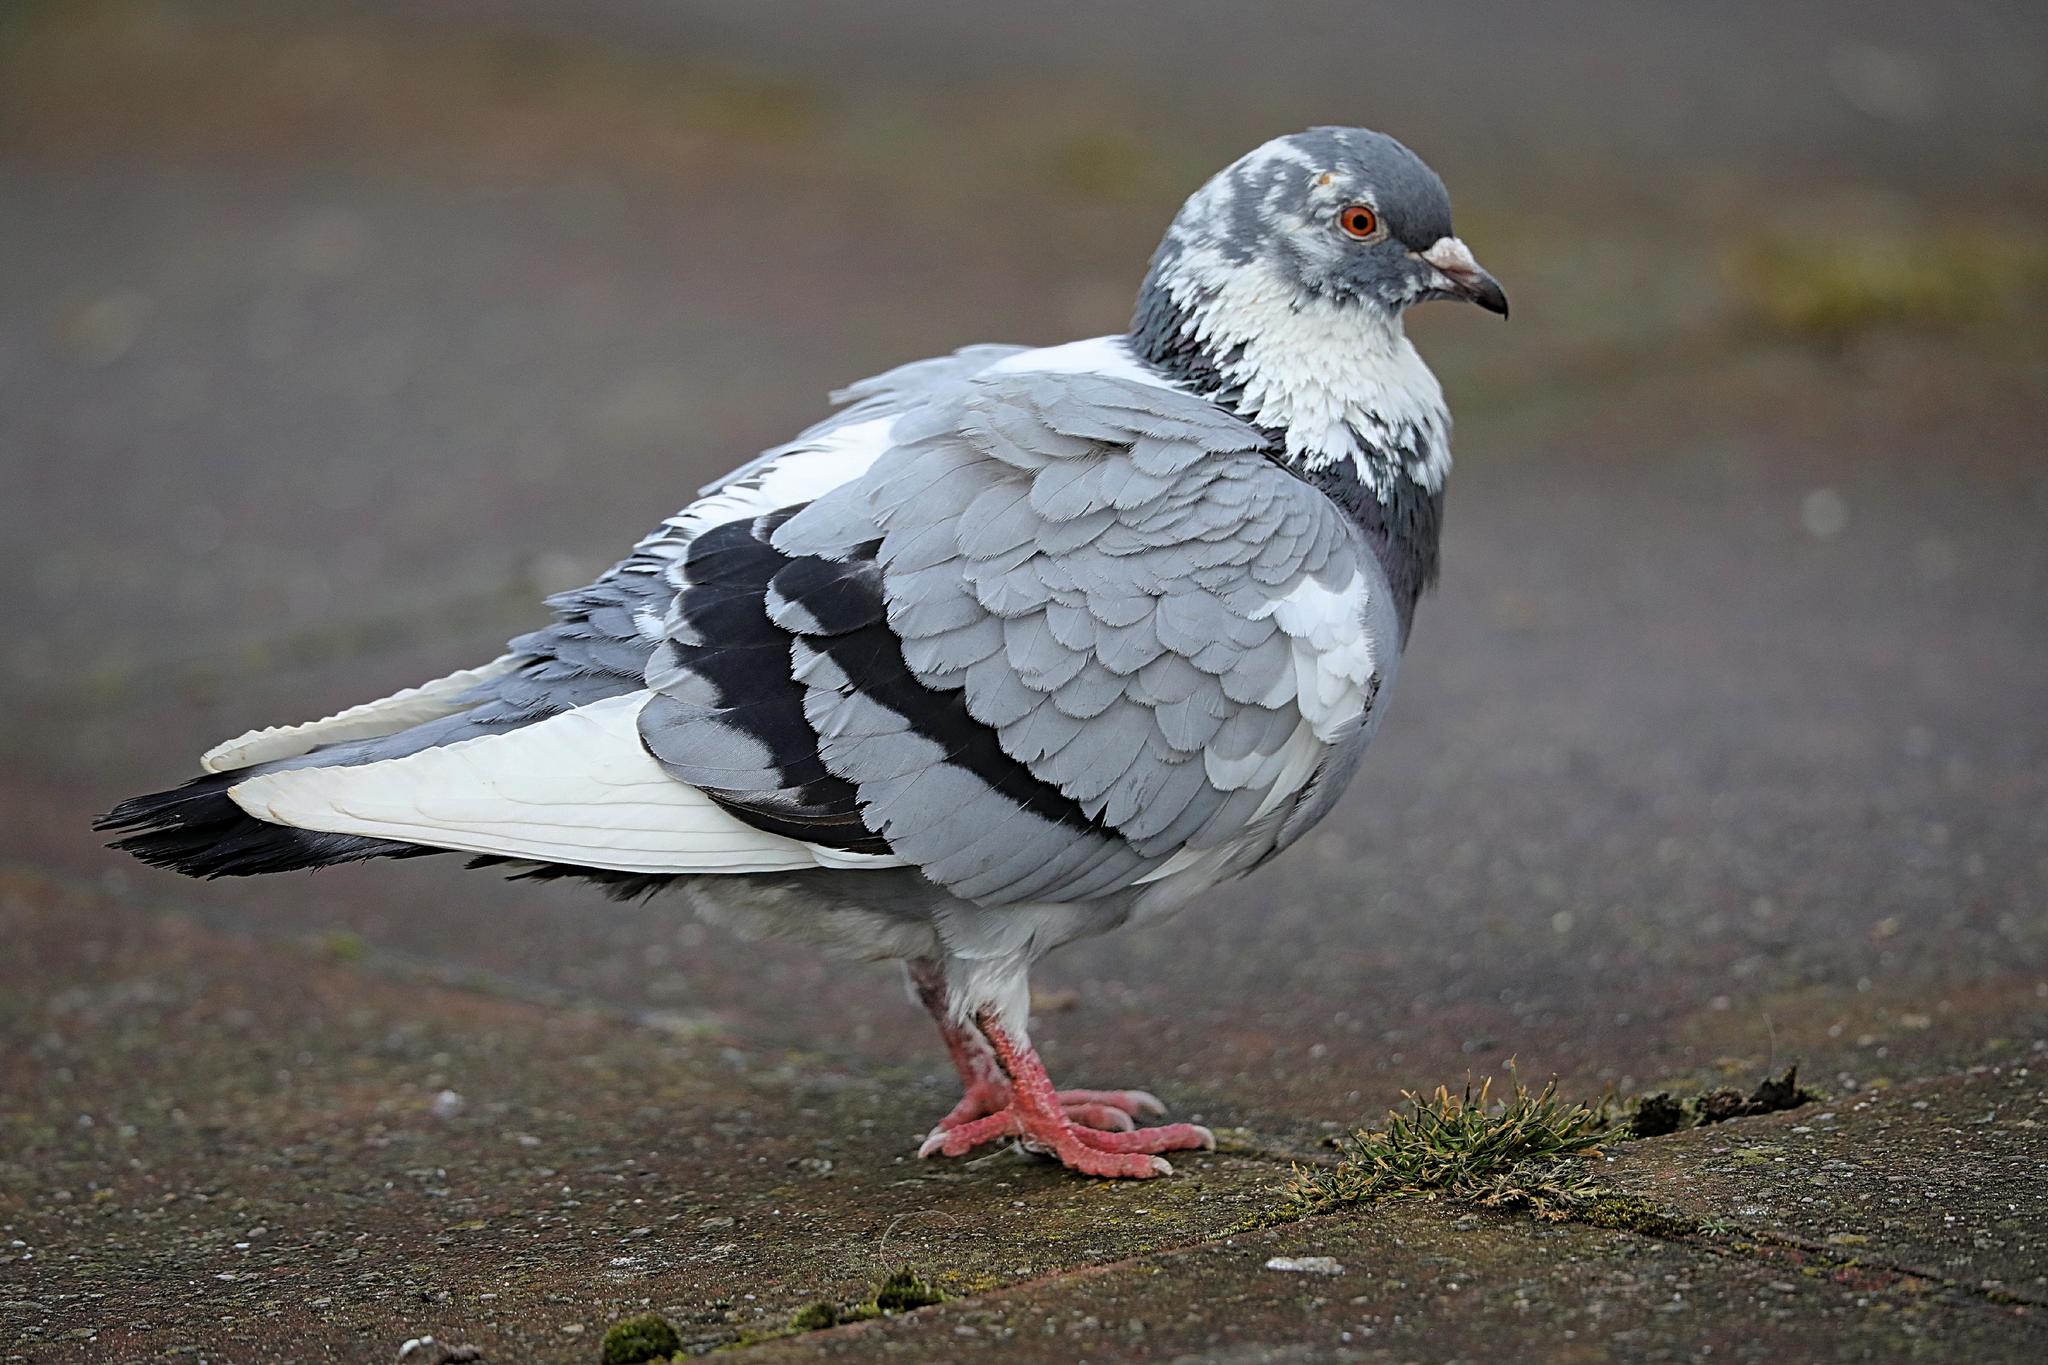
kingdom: Animalia
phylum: Chordata
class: Aves
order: Columbiformes
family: Columbidae
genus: Columba
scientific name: Columba livia
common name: Rock pigeon
